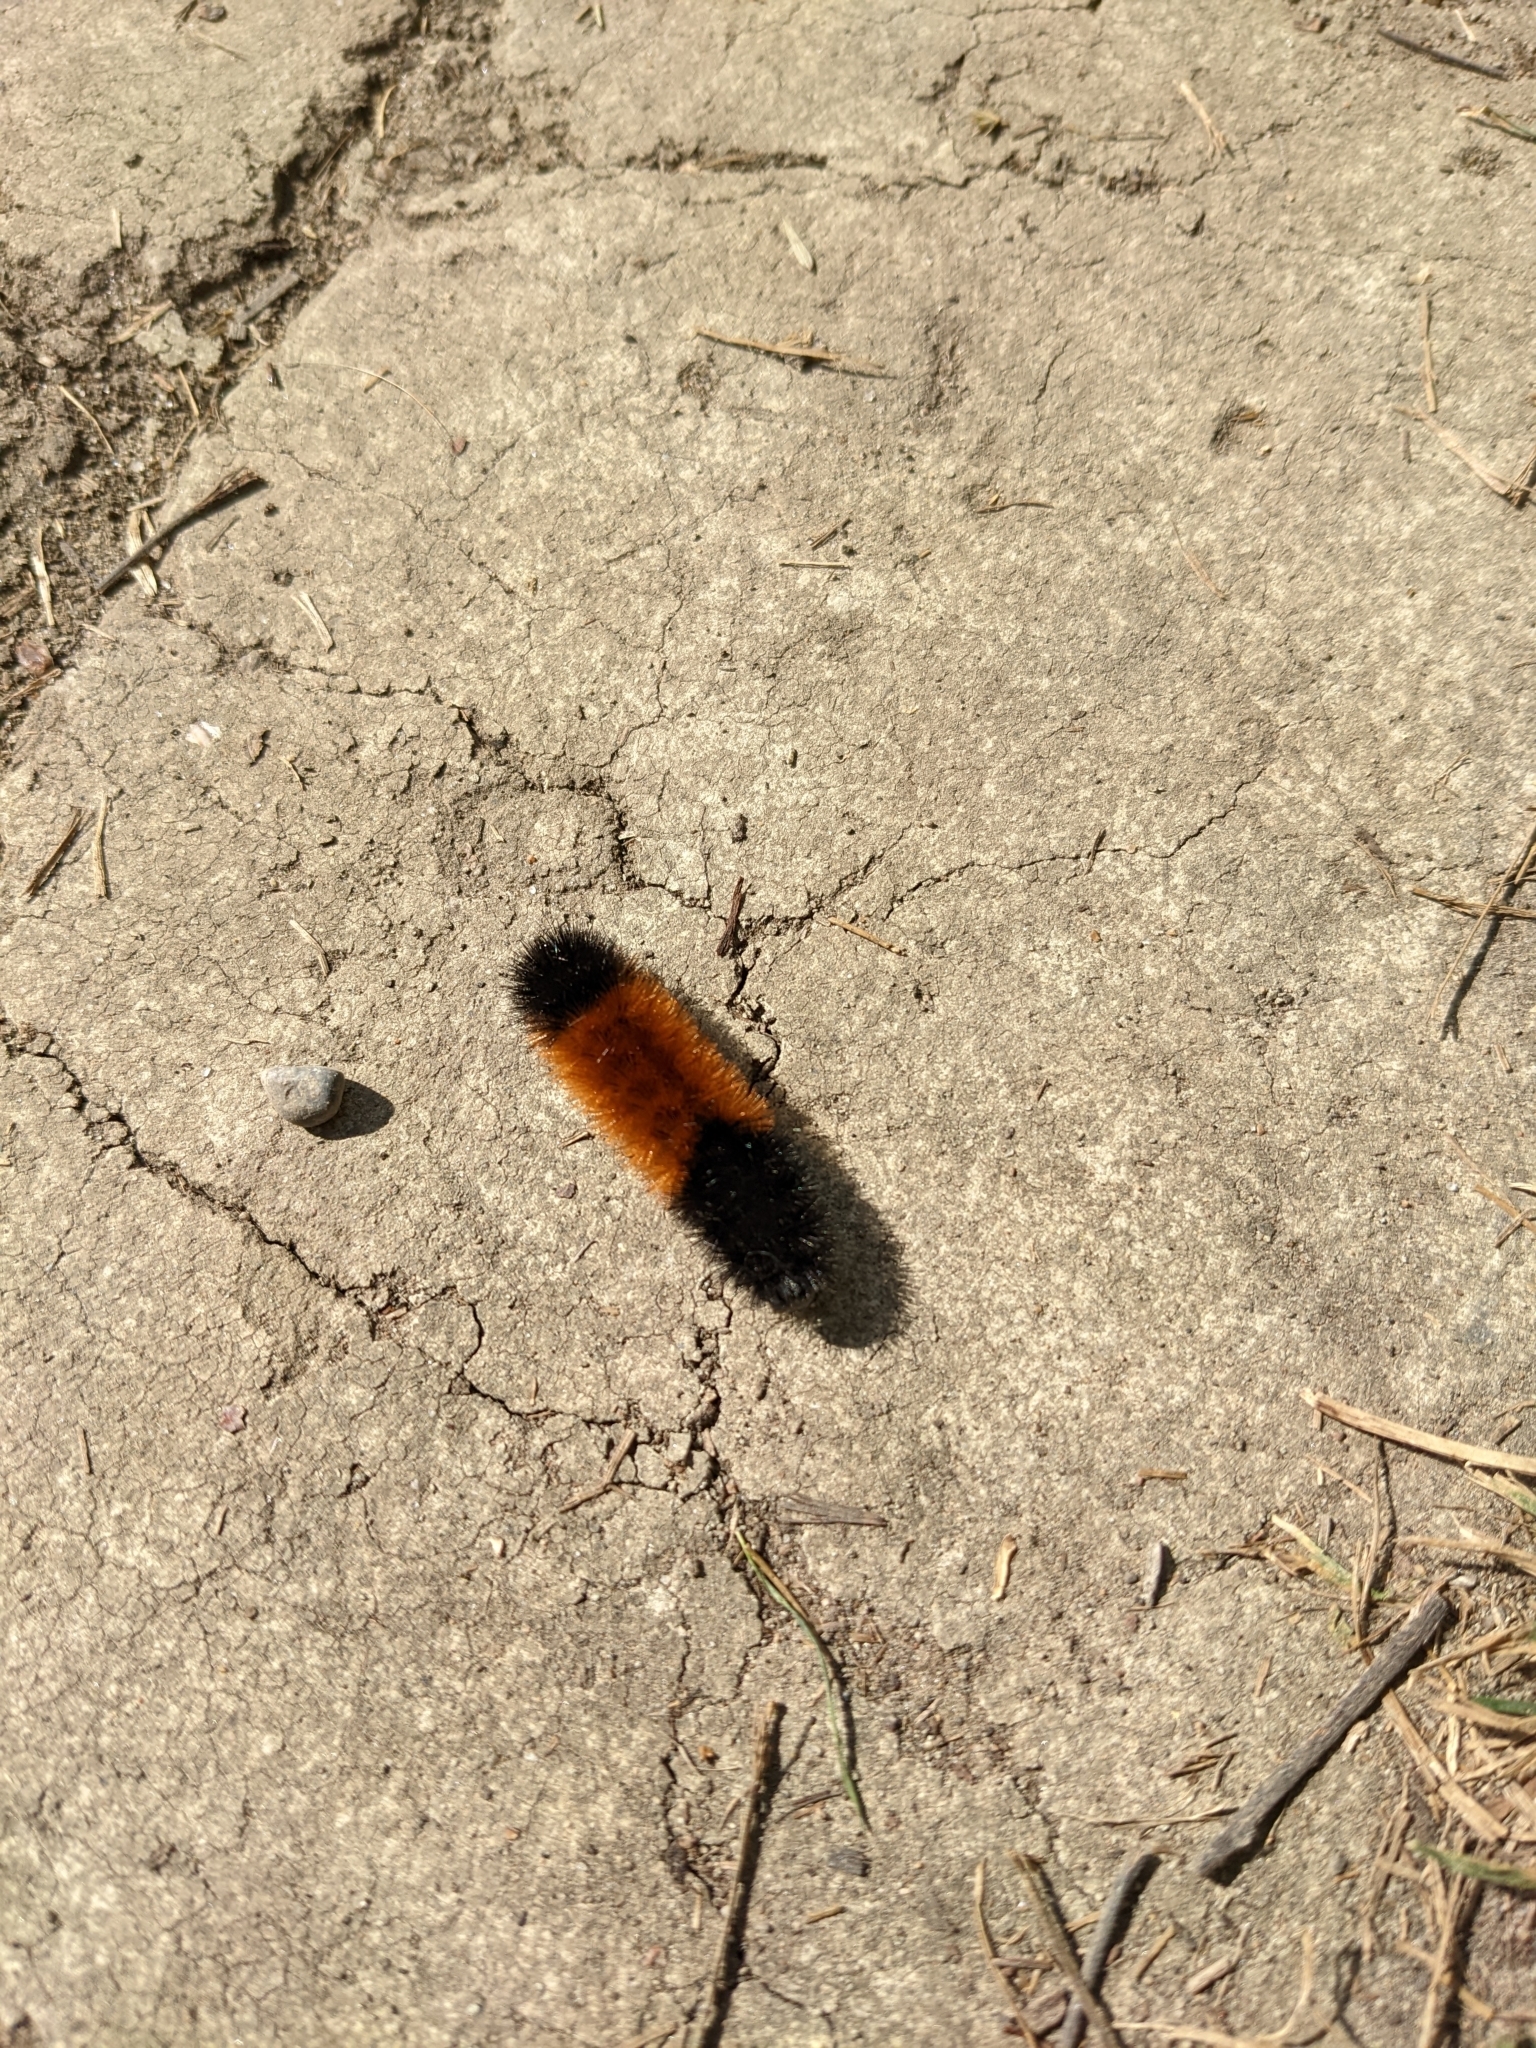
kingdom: Animalia
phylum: Arthropoda
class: Insecta
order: Lepidoptera
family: Erebidae
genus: Pyrrharctia
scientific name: Pyrrharctia isabella
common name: Isabella tiger moth
